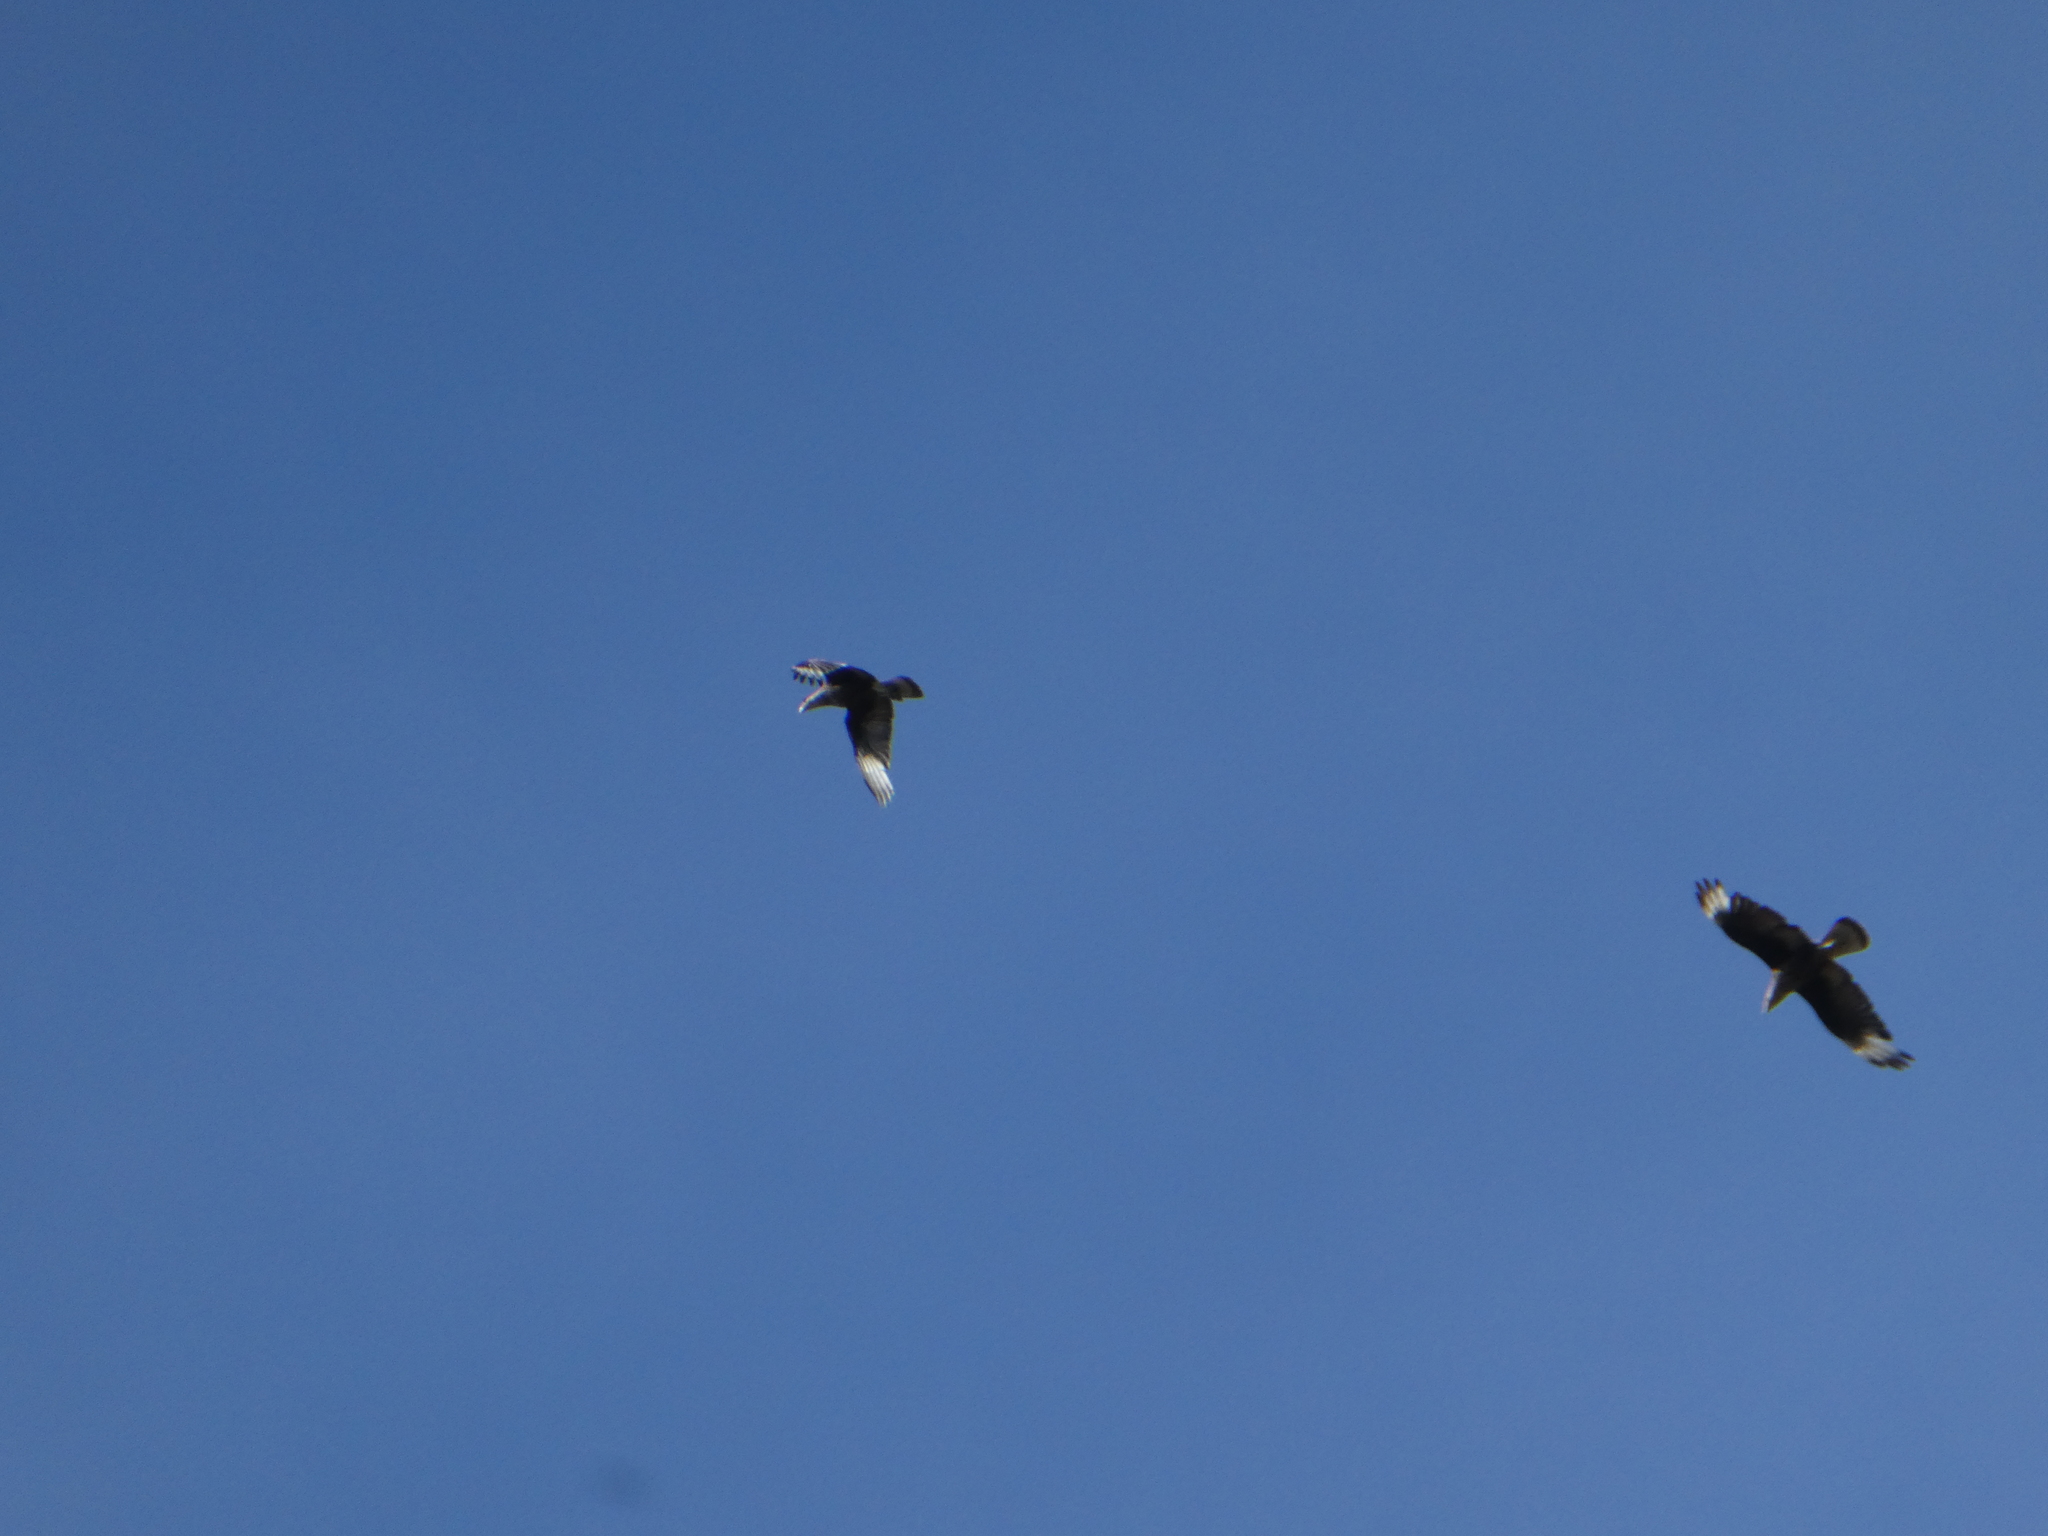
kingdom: Animalia
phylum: Chordata
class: Aves
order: Falconiformes
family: Falconidae
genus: Caracara
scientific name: Caracara plancus
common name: Southern caracara
